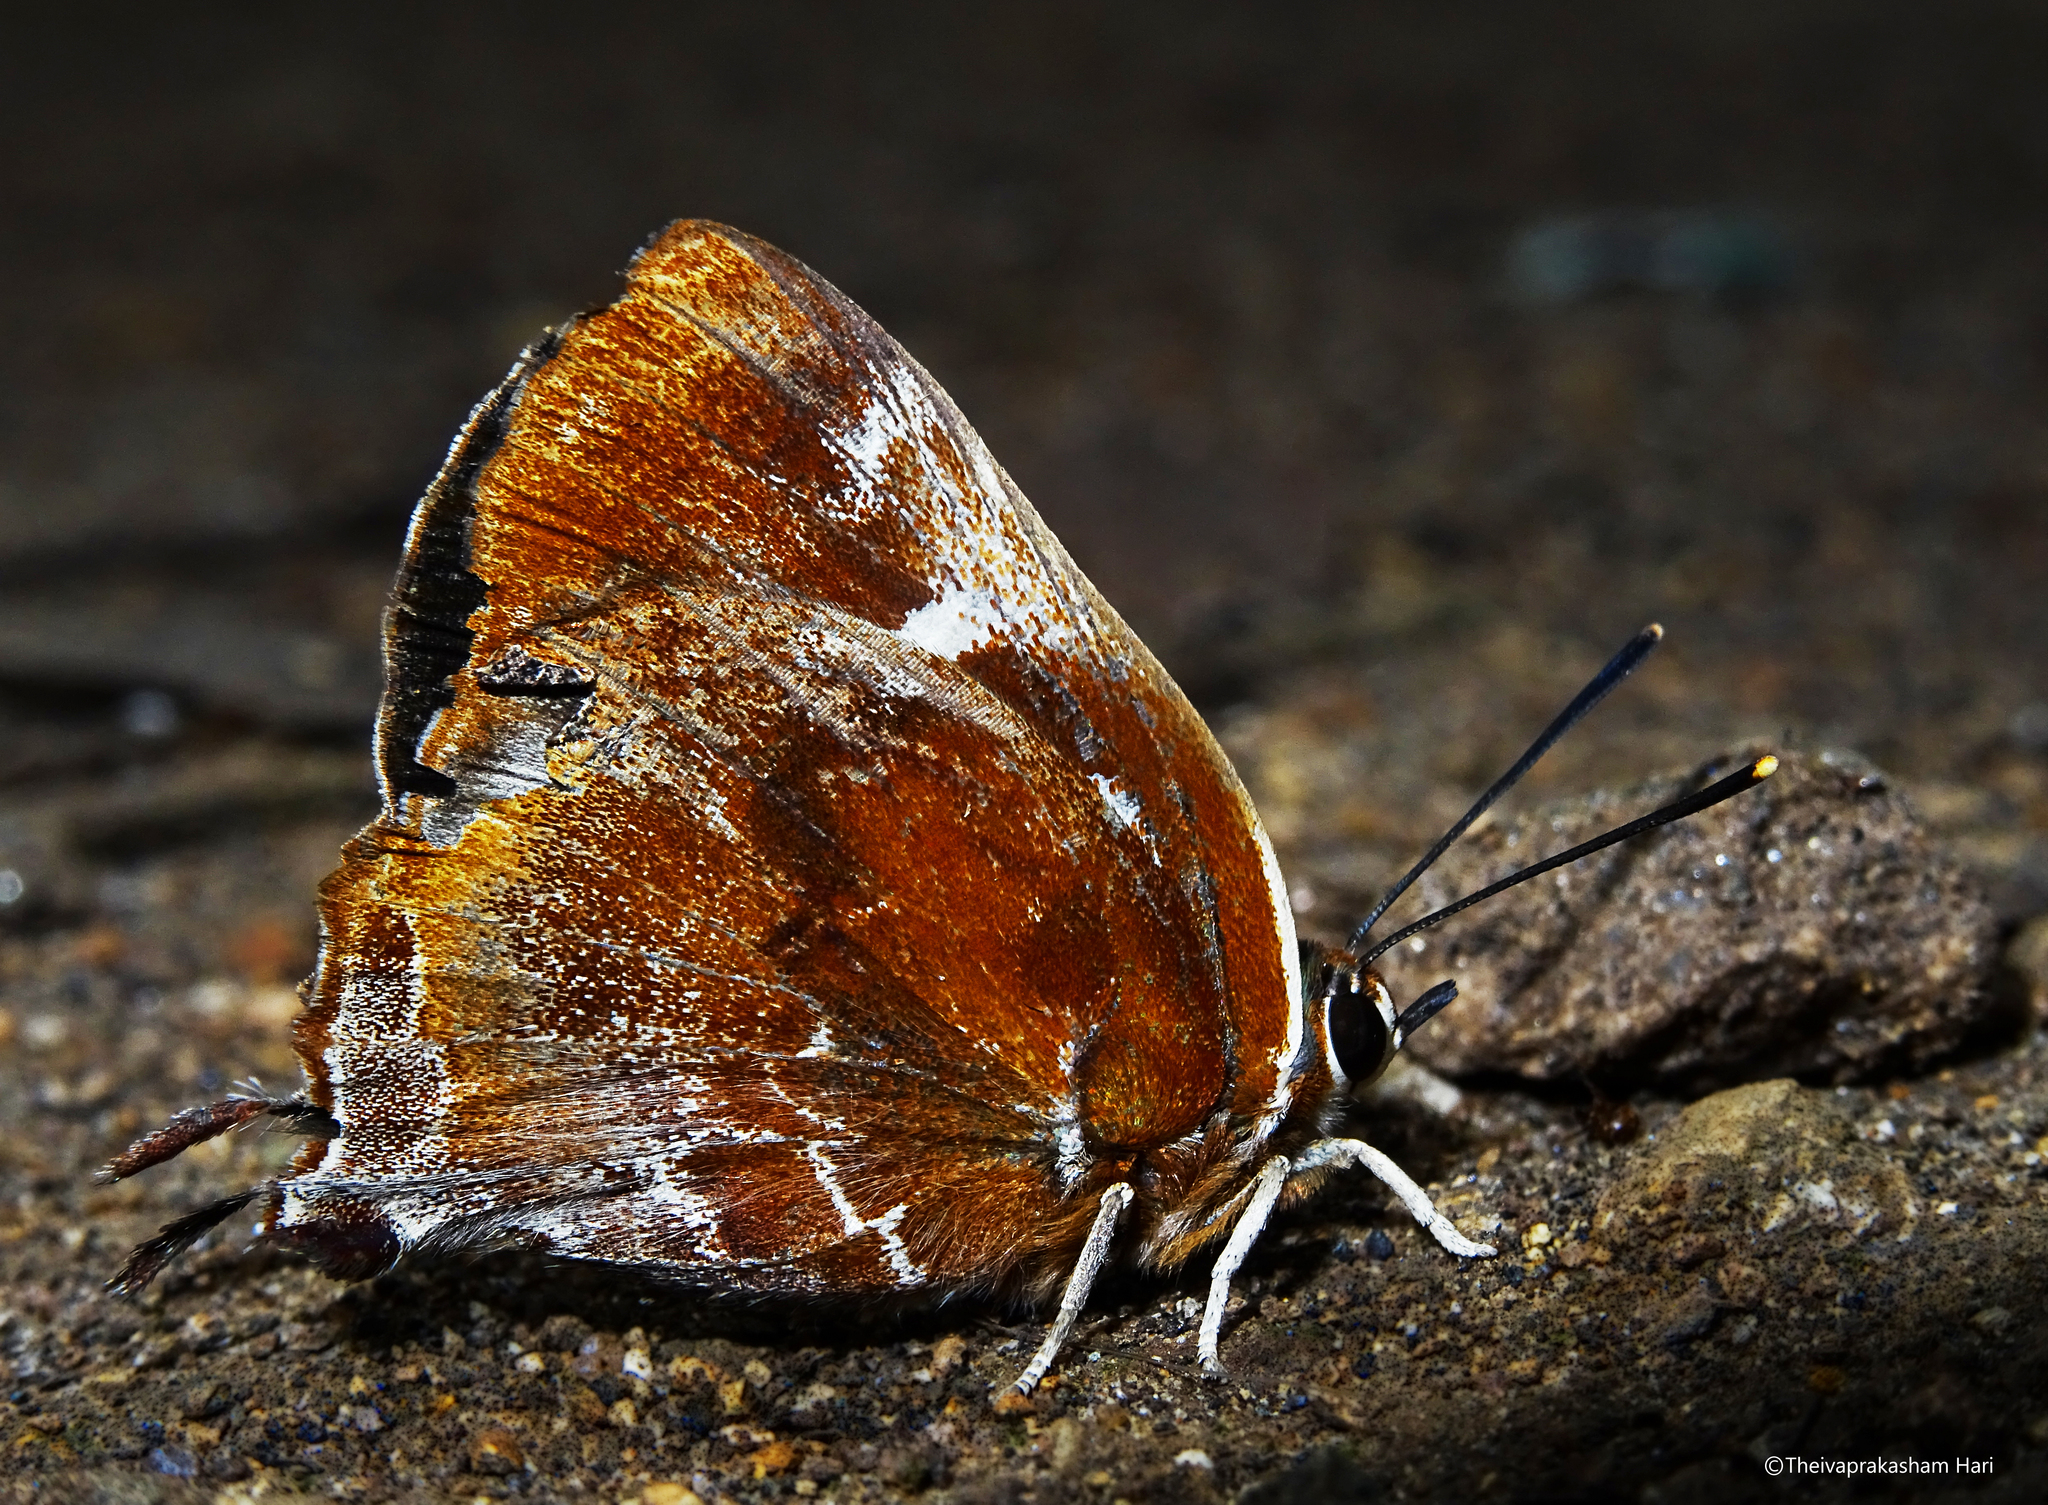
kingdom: Animalia
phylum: Arthropoda
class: Insecta
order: Lepidoptera
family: Lycaenidae
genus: Iraota
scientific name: Iraota timoleon
